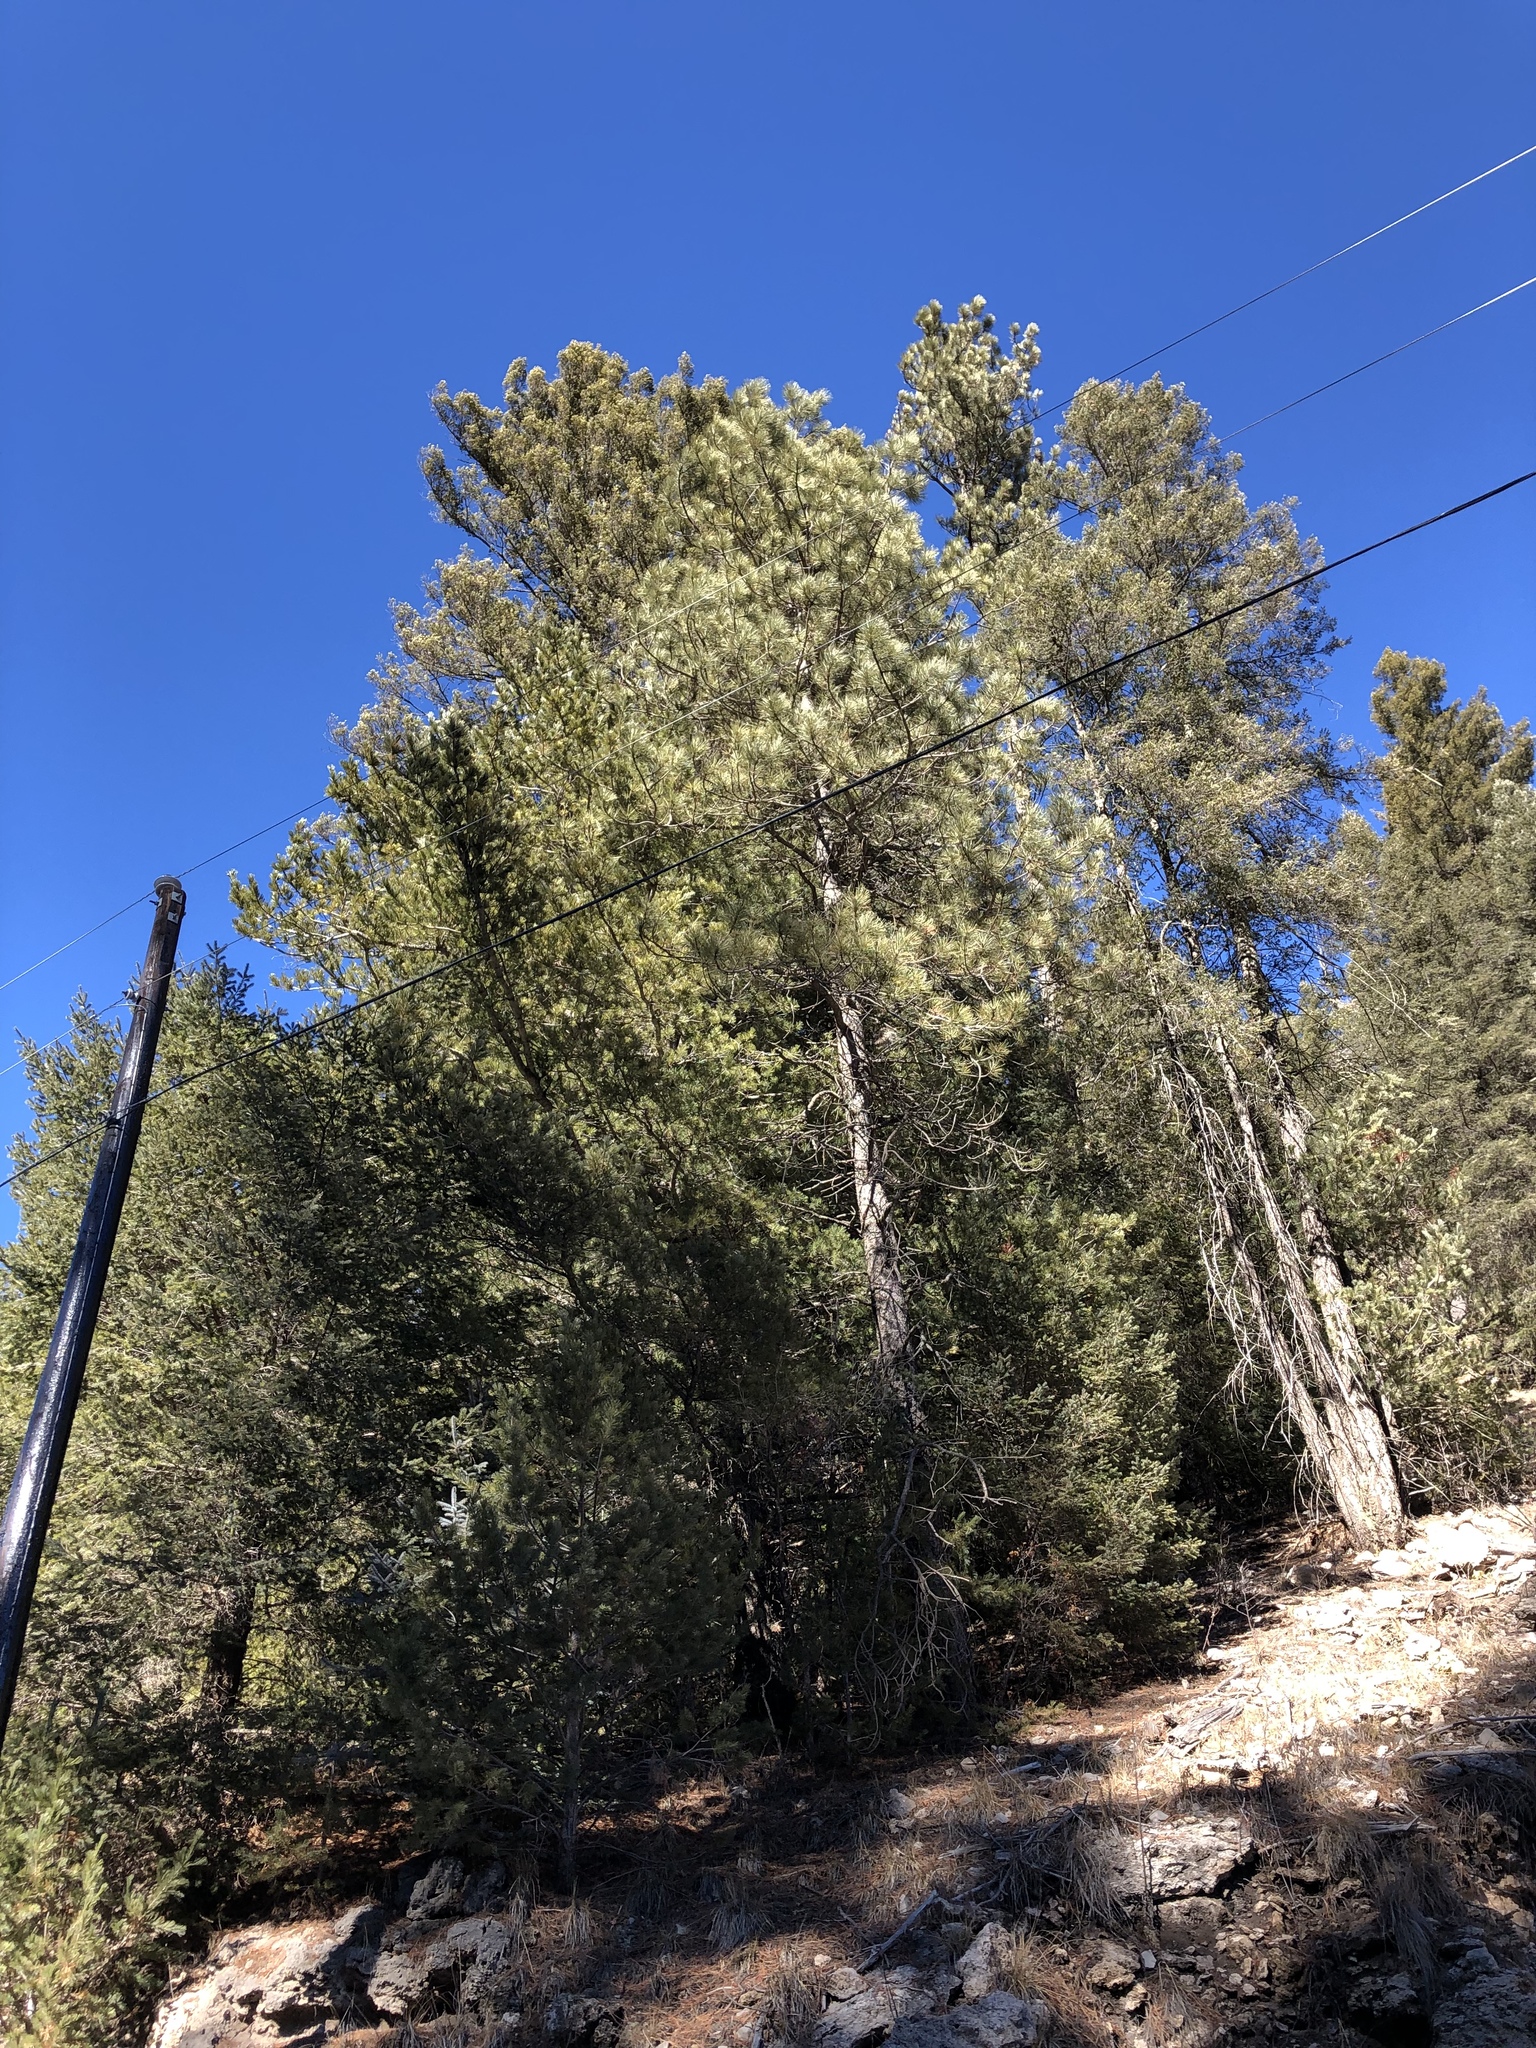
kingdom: Plantae
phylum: Tracheophyta
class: Pinopsida
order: Pinales
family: Pinaceae
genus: Pinus
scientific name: Pinus strobiformis
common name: Southwestern white pine
